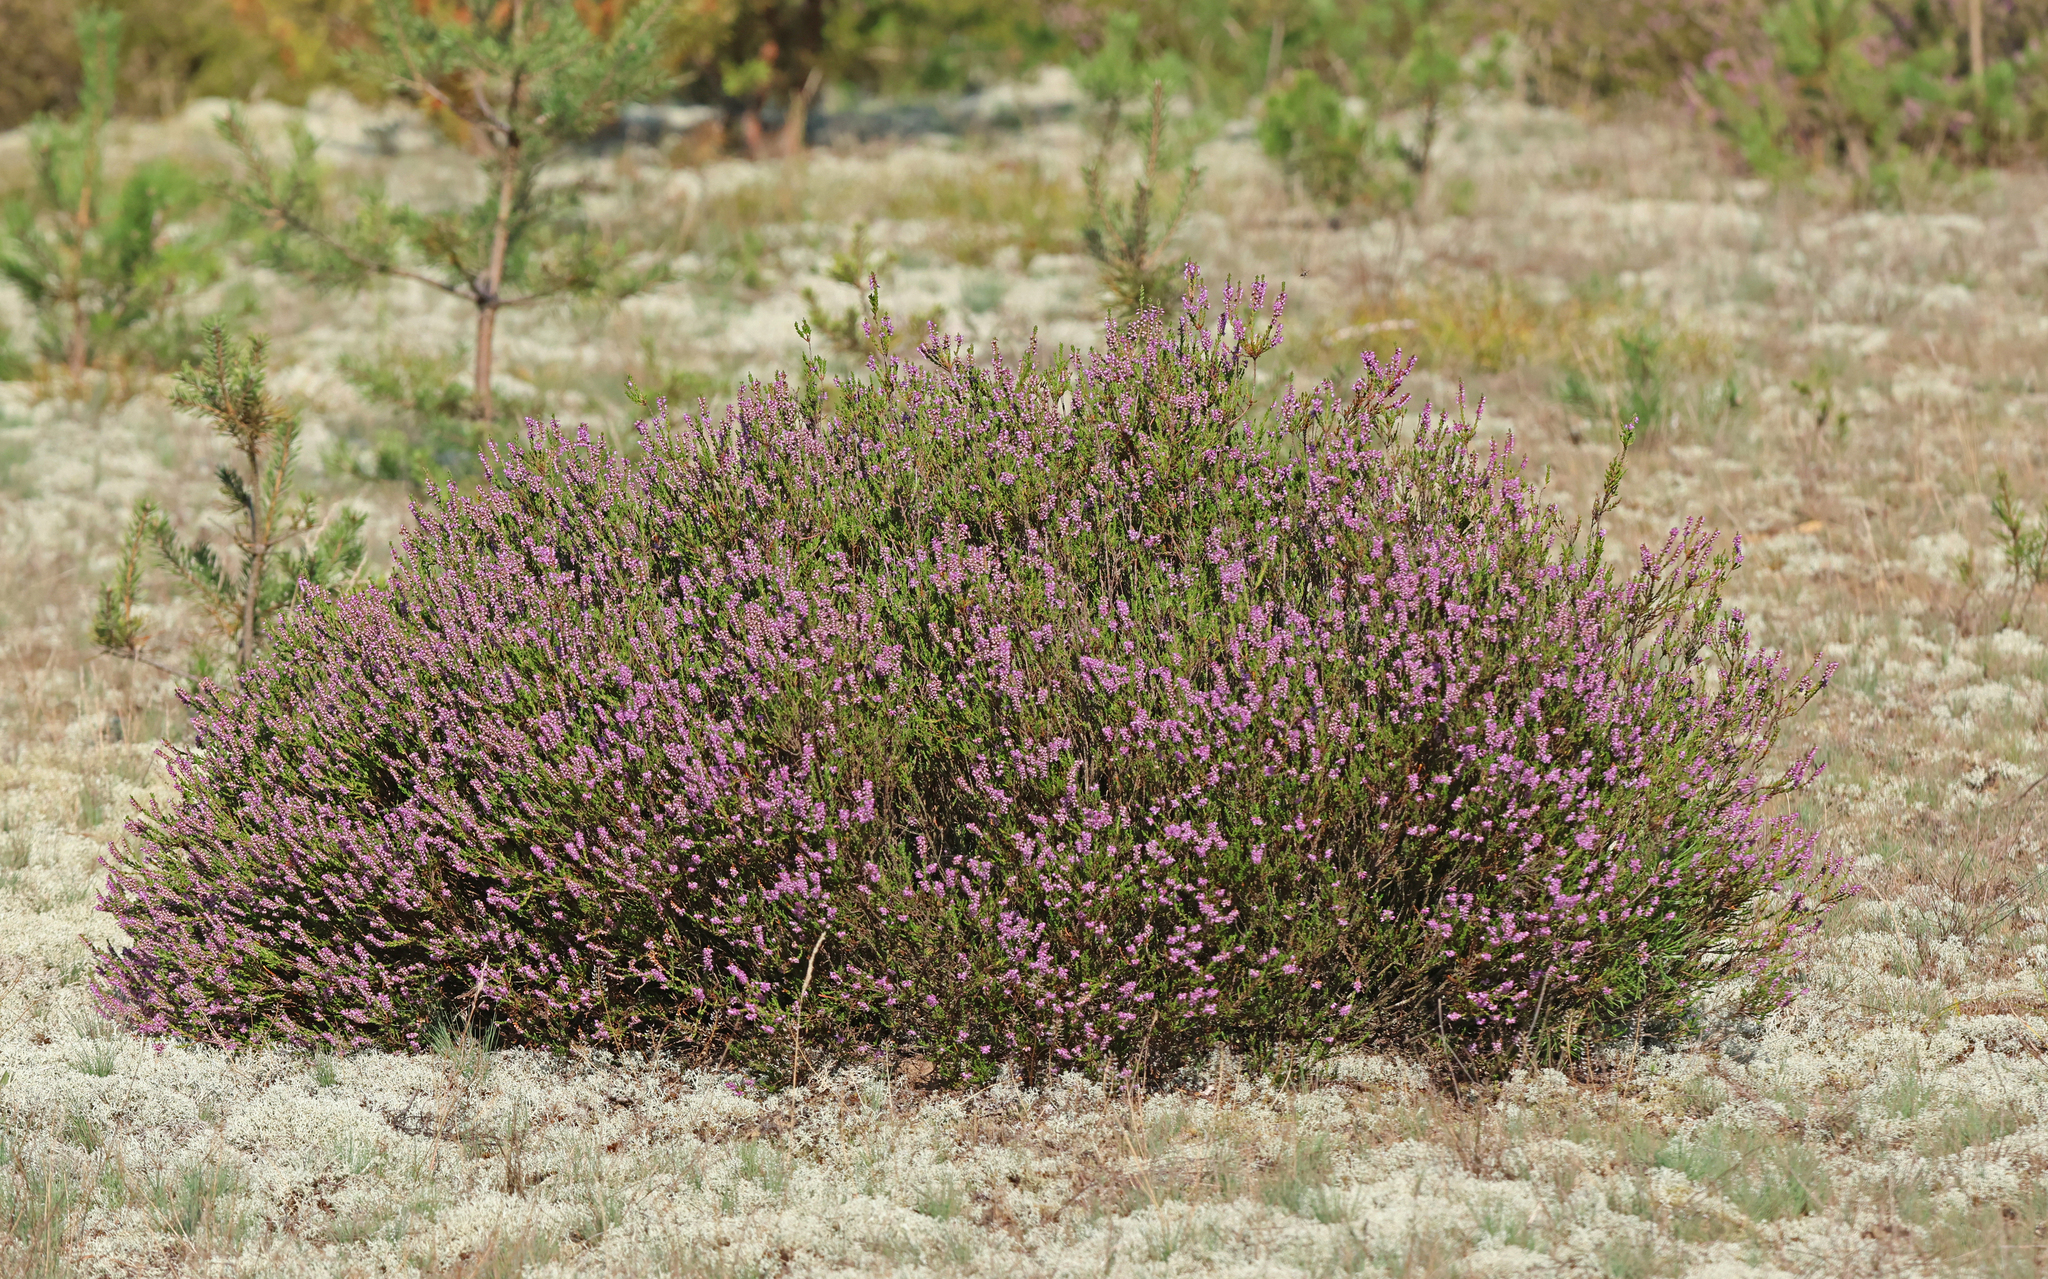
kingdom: Plantae
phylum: Tracheophyta
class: Magnoliopsida
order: Ericales
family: Ericaceae
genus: Calluna
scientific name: Calluna vulgaris
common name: Heather
